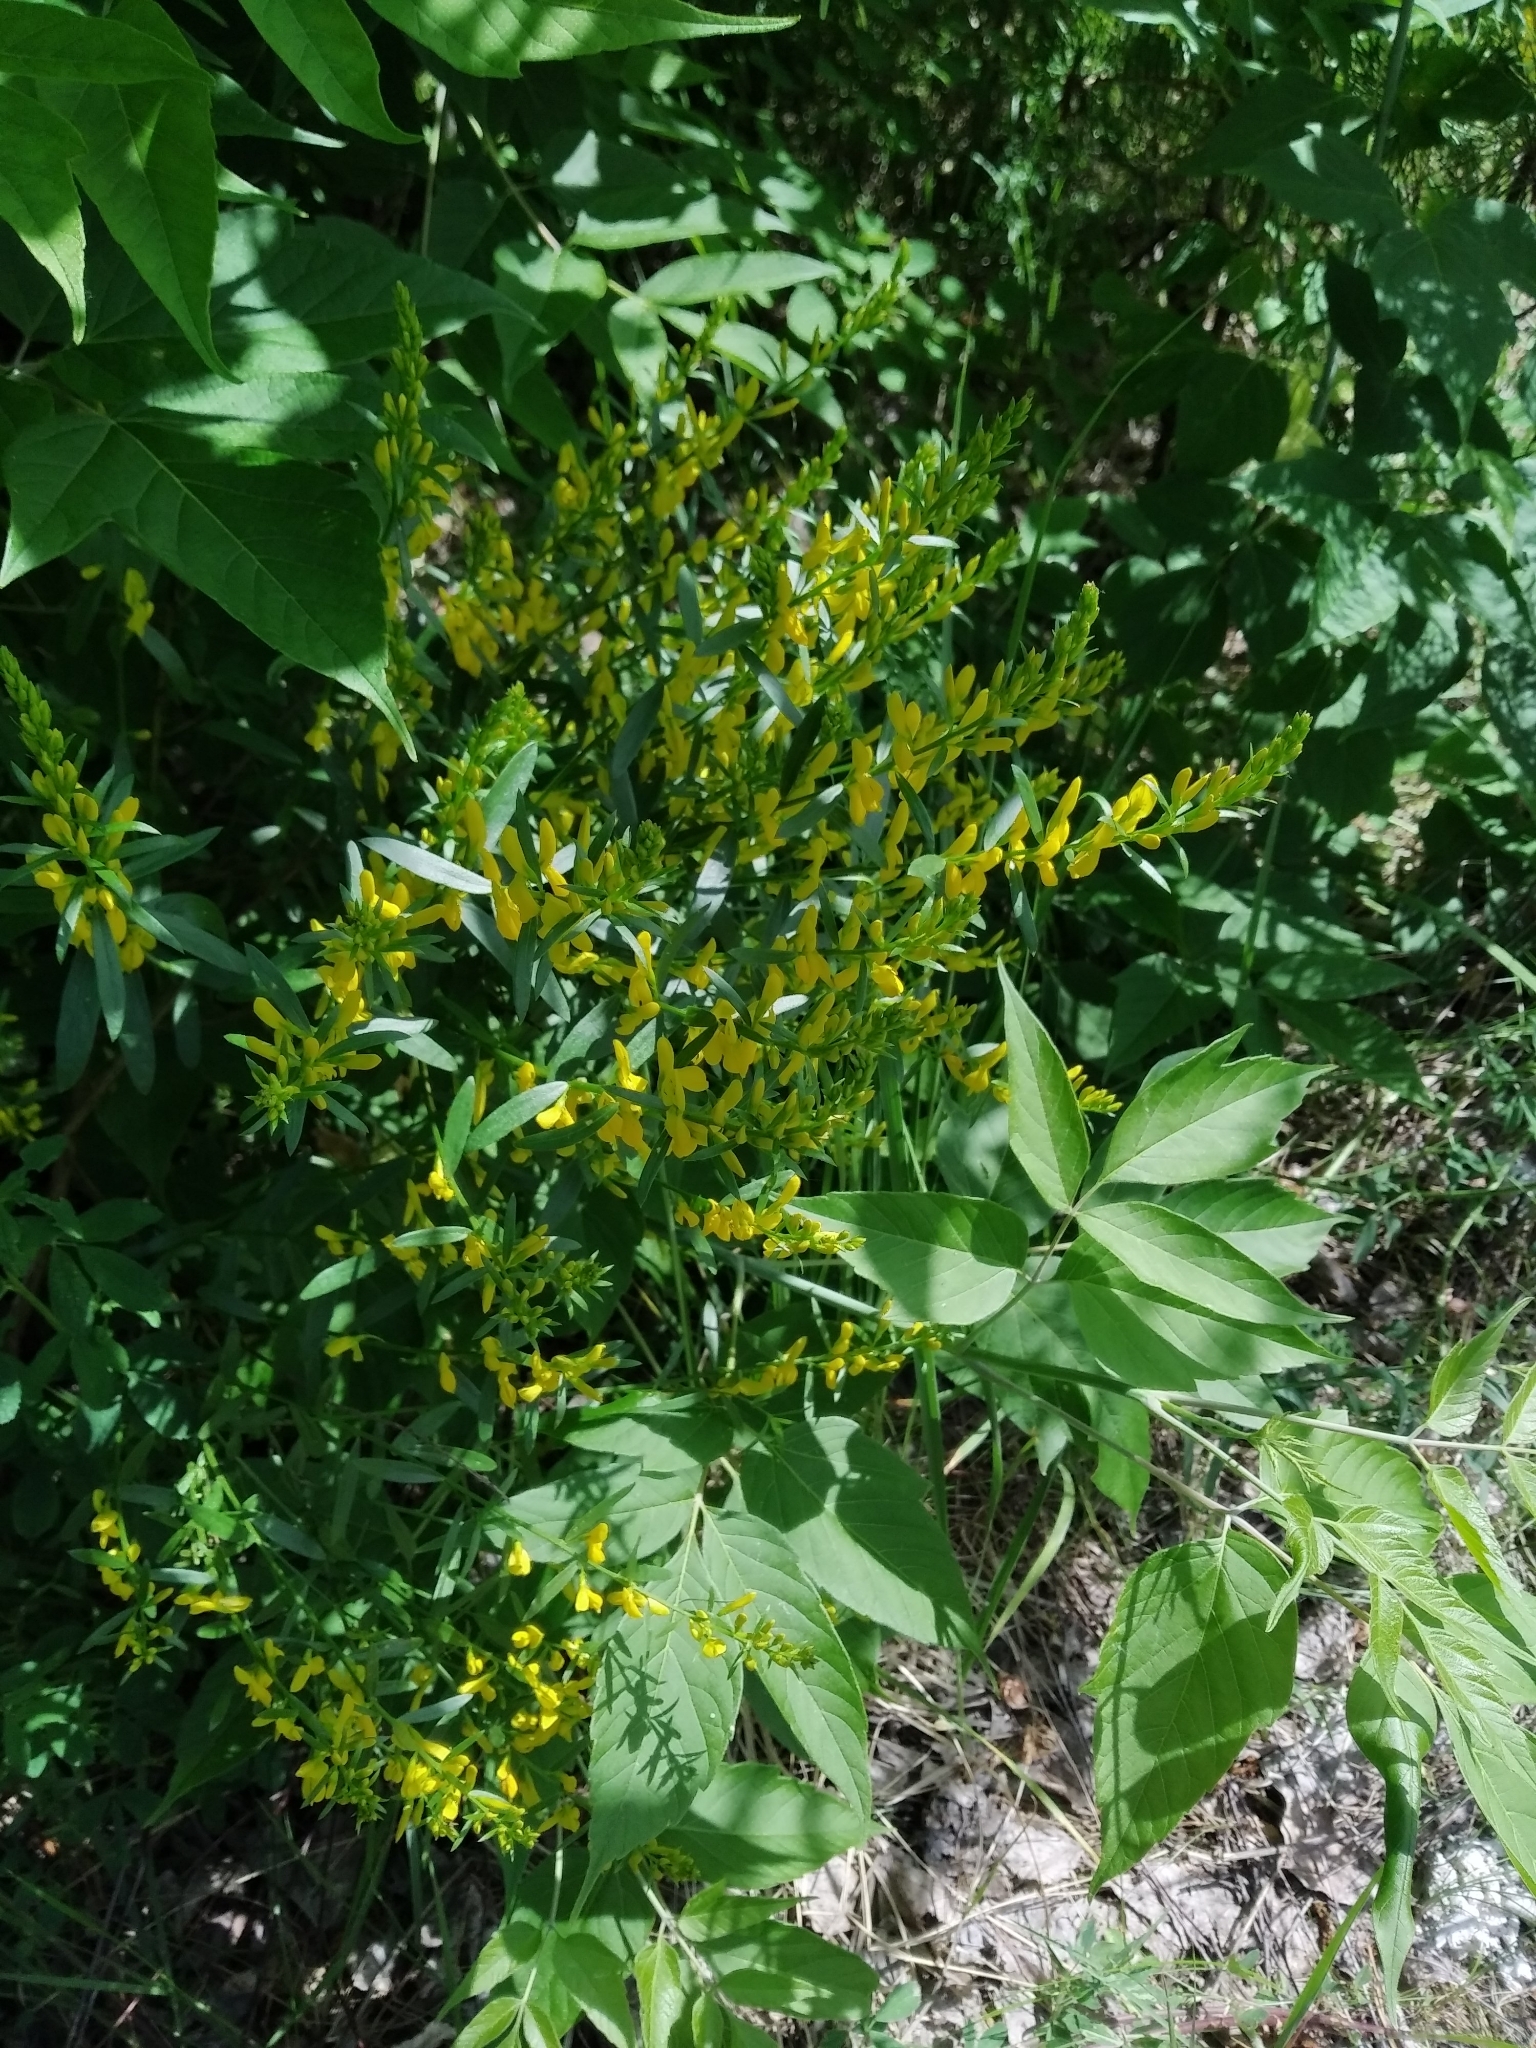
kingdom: Plantae
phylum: Tracheophyta
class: Magnoliopsida
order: Fabales
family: Fabaceae
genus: Genista
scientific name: Genista tinctoria
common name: Dyer's greenweed
